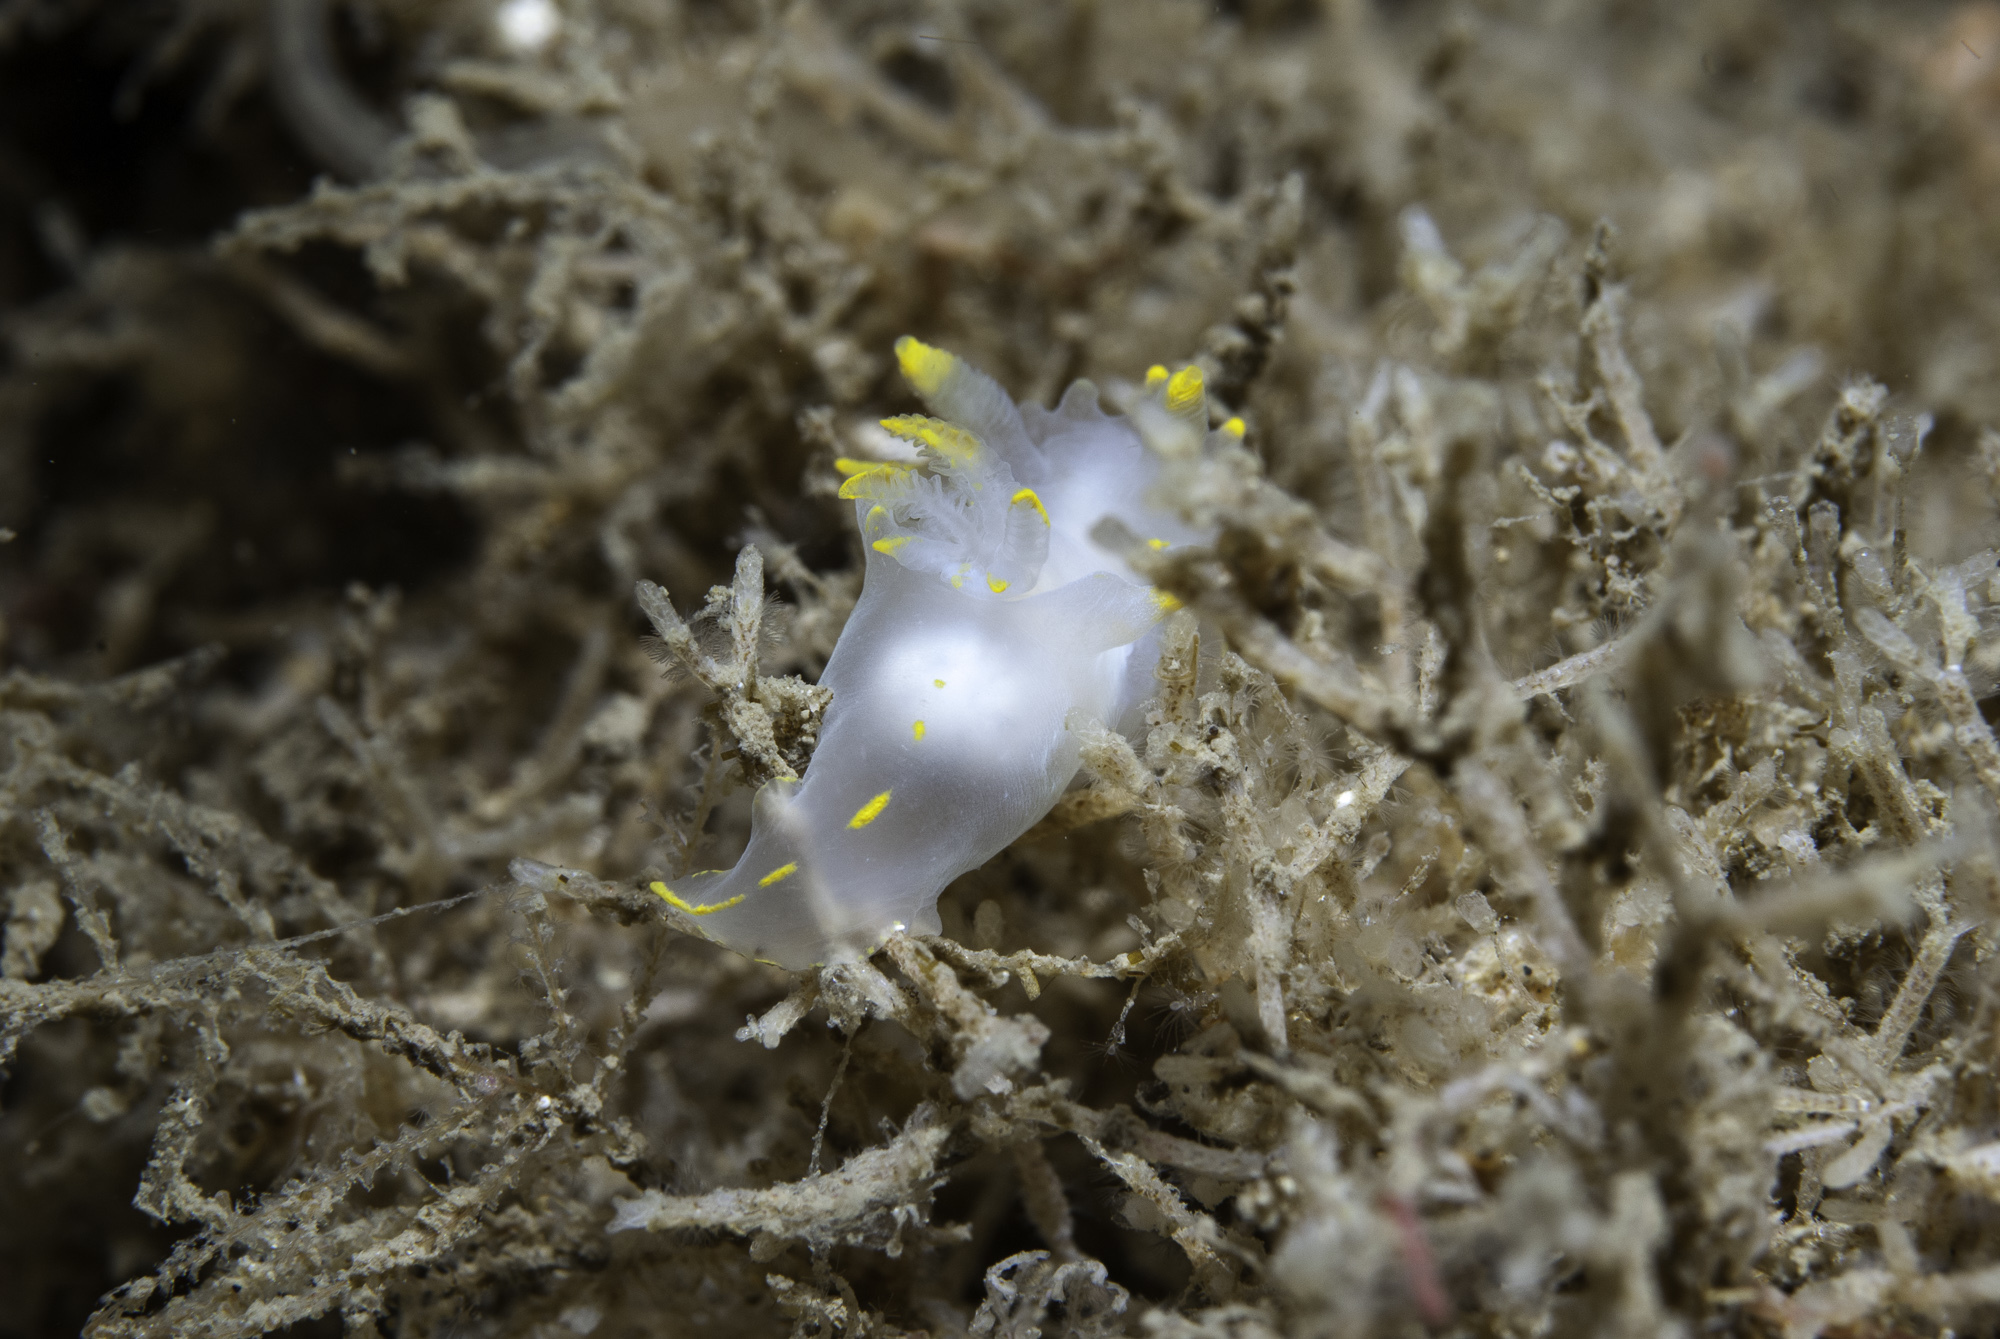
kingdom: Animalia
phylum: Mollusca
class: Gastropoda
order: Nudibranchia
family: Polyceridae
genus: Polycera
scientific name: Polycera faeroensis
